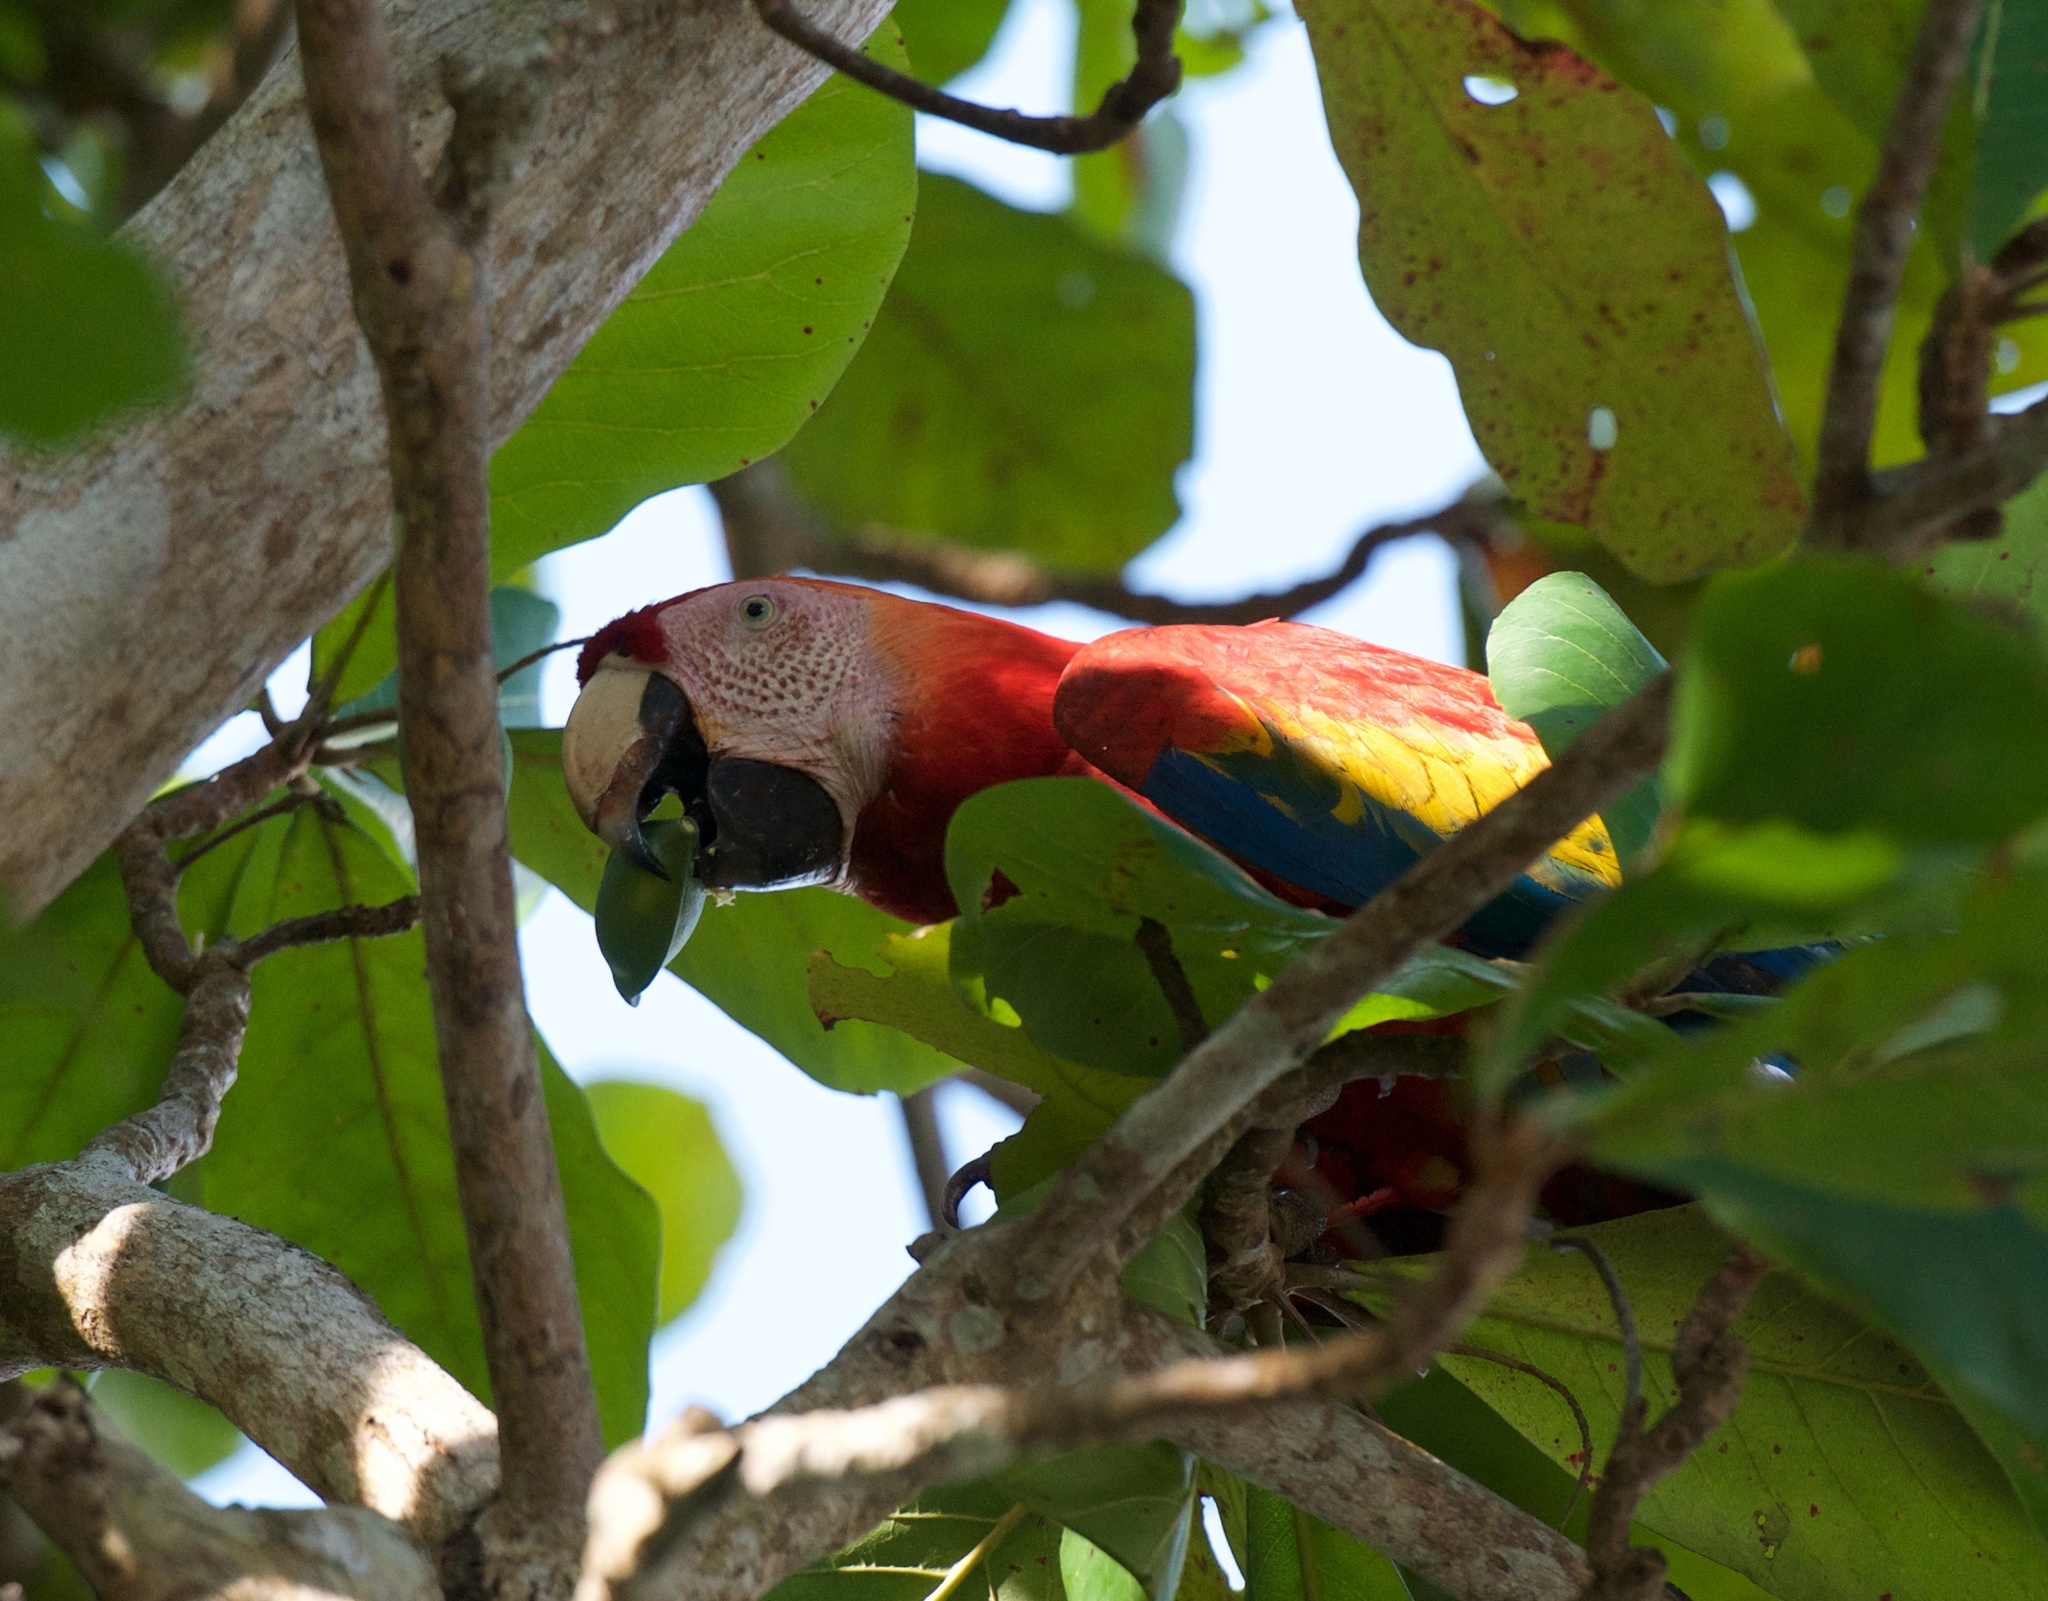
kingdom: Animalia
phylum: Chordata
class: Aves
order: Psittaciformes
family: Psittacidae
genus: Ara
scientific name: Ara macao
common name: Scarlet macaw
